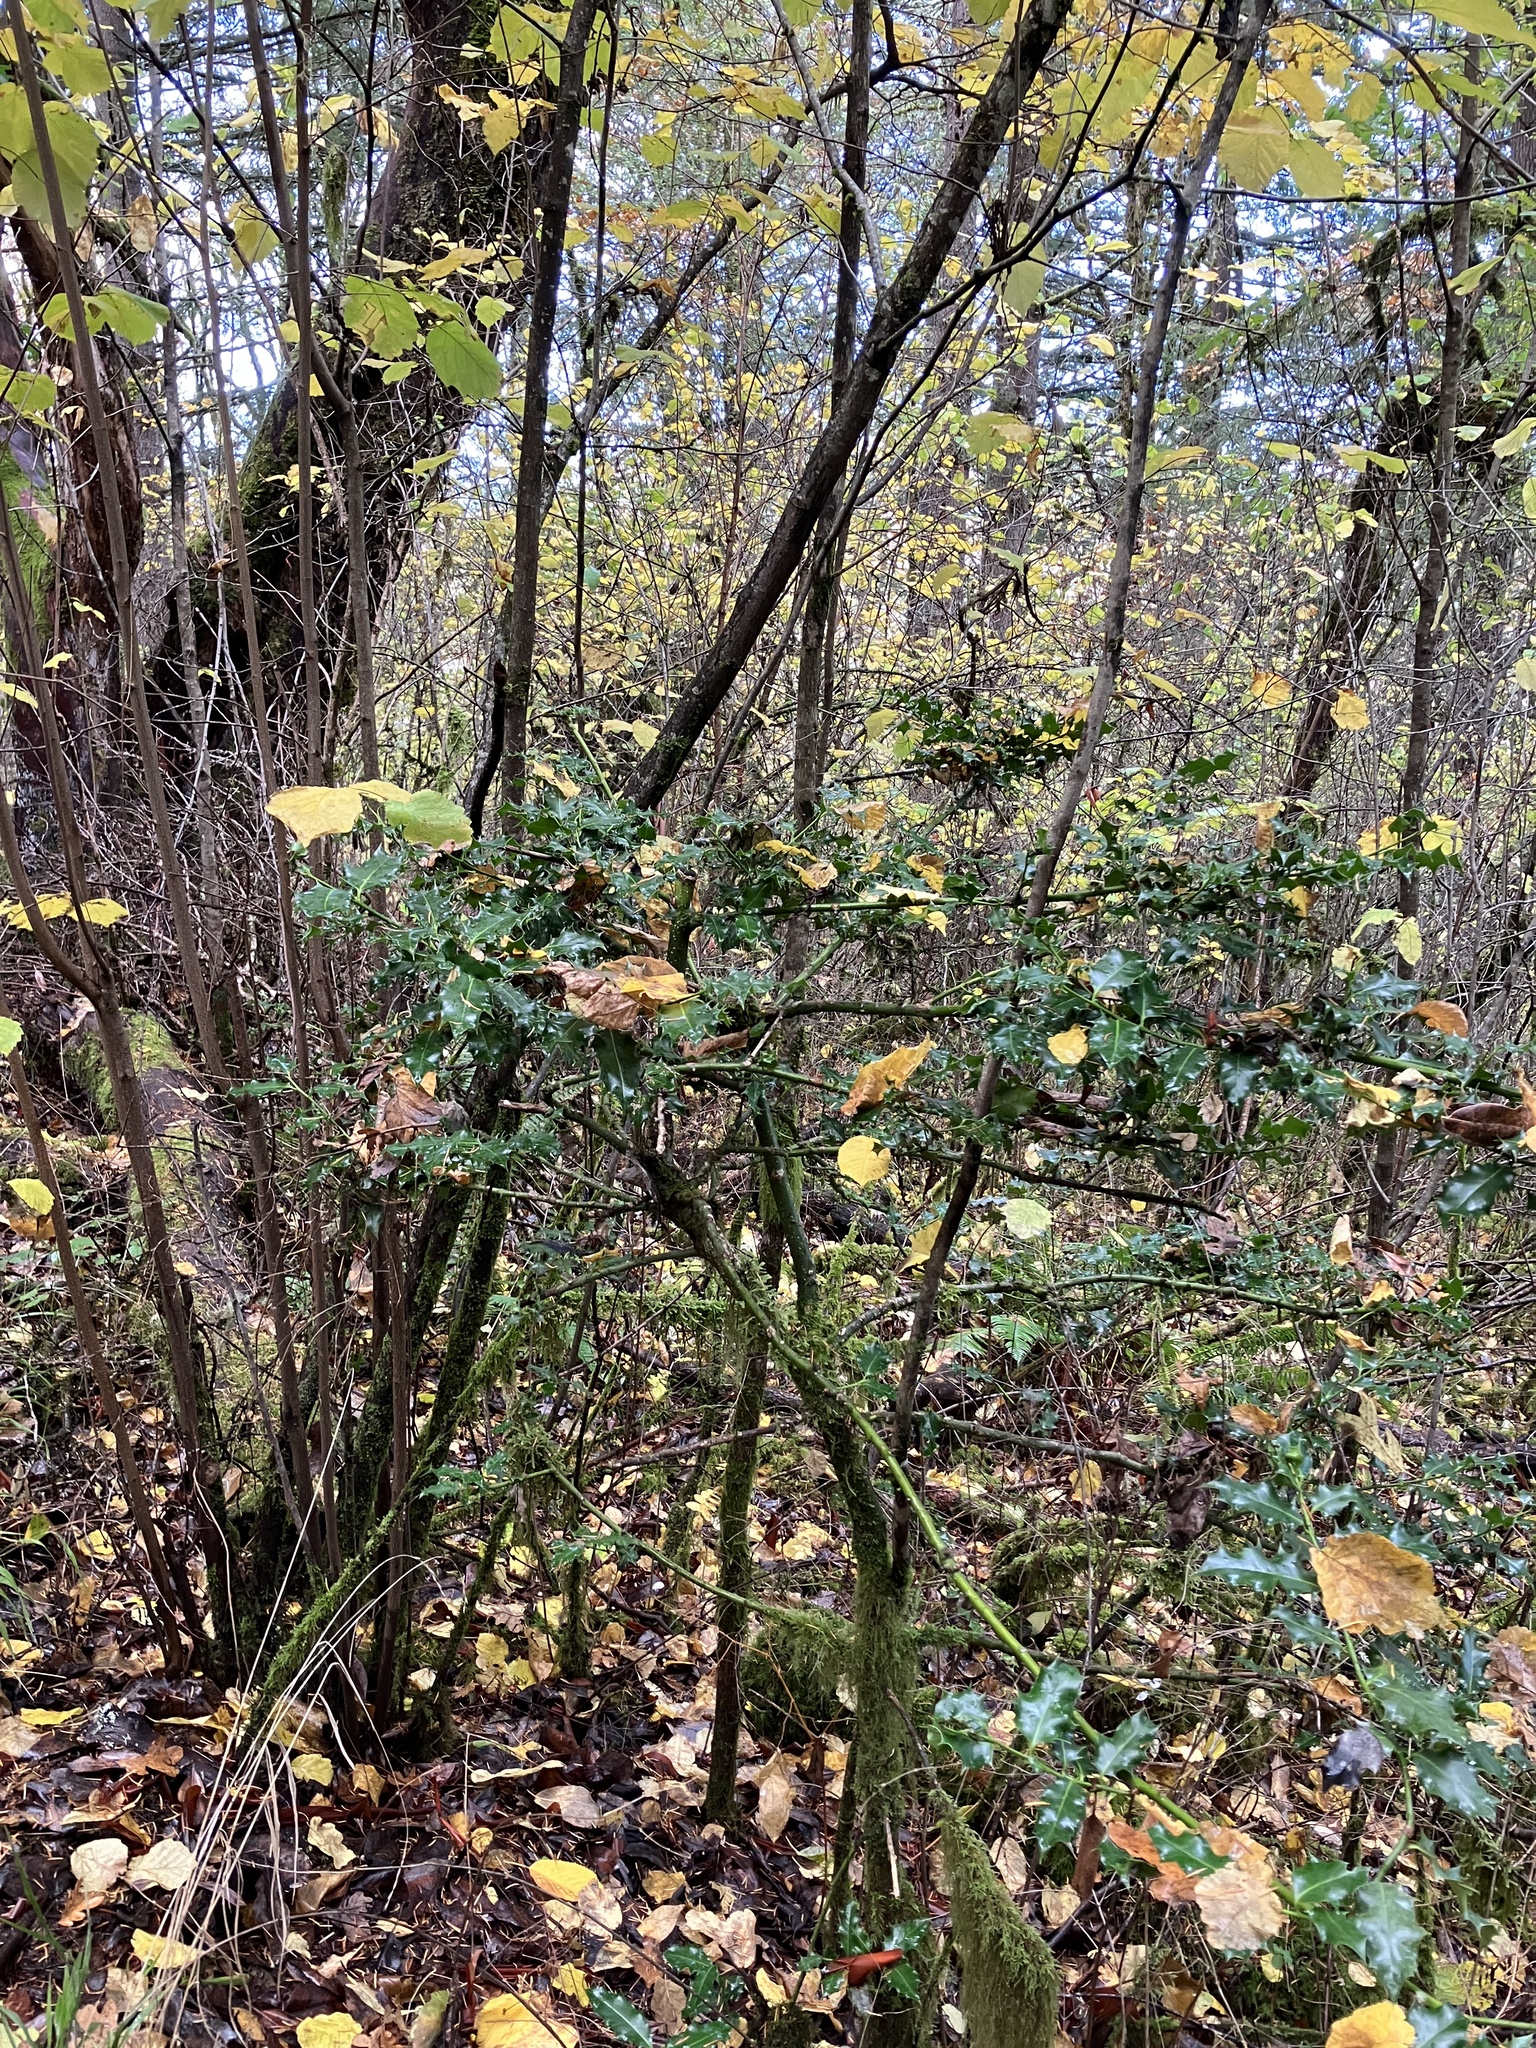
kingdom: Plantae
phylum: Tracheophyta
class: Magnoliopsida
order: Aquifoliales
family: Aquifoliaceae
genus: Ilex
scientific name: Ilex aquifolium
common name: English holly
